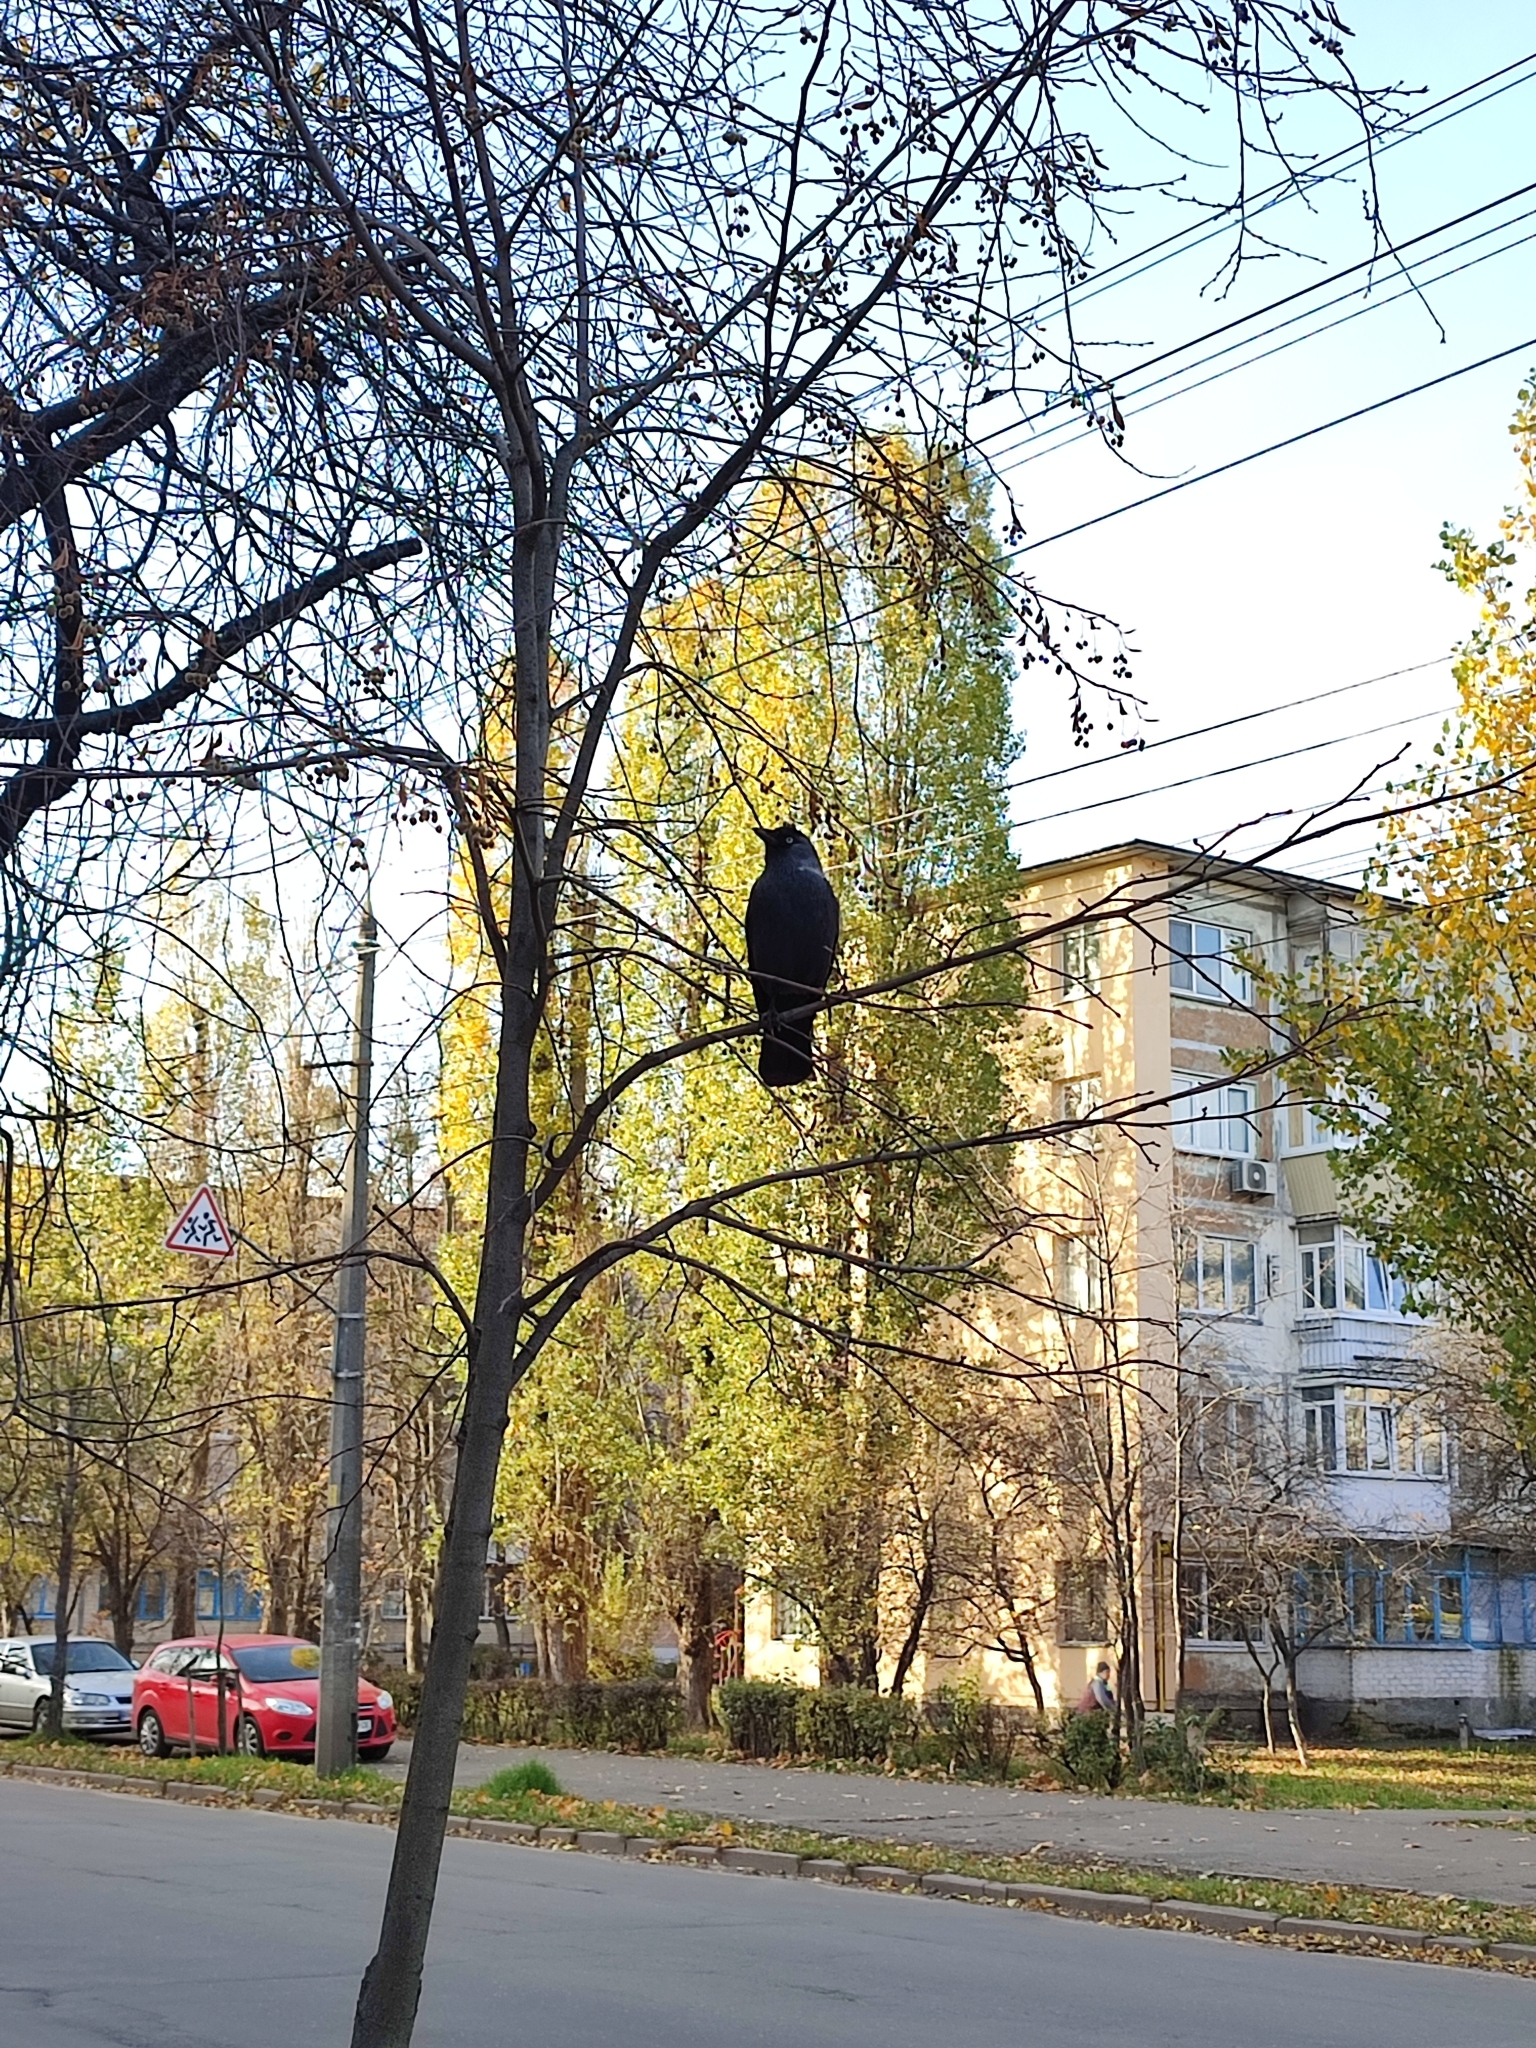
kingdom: Animalia
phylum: Chordata
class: Aves
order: Passeriformes
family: Corvidae
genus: Coloeus
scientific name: Coloeus monedula
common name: Western jackdaw
